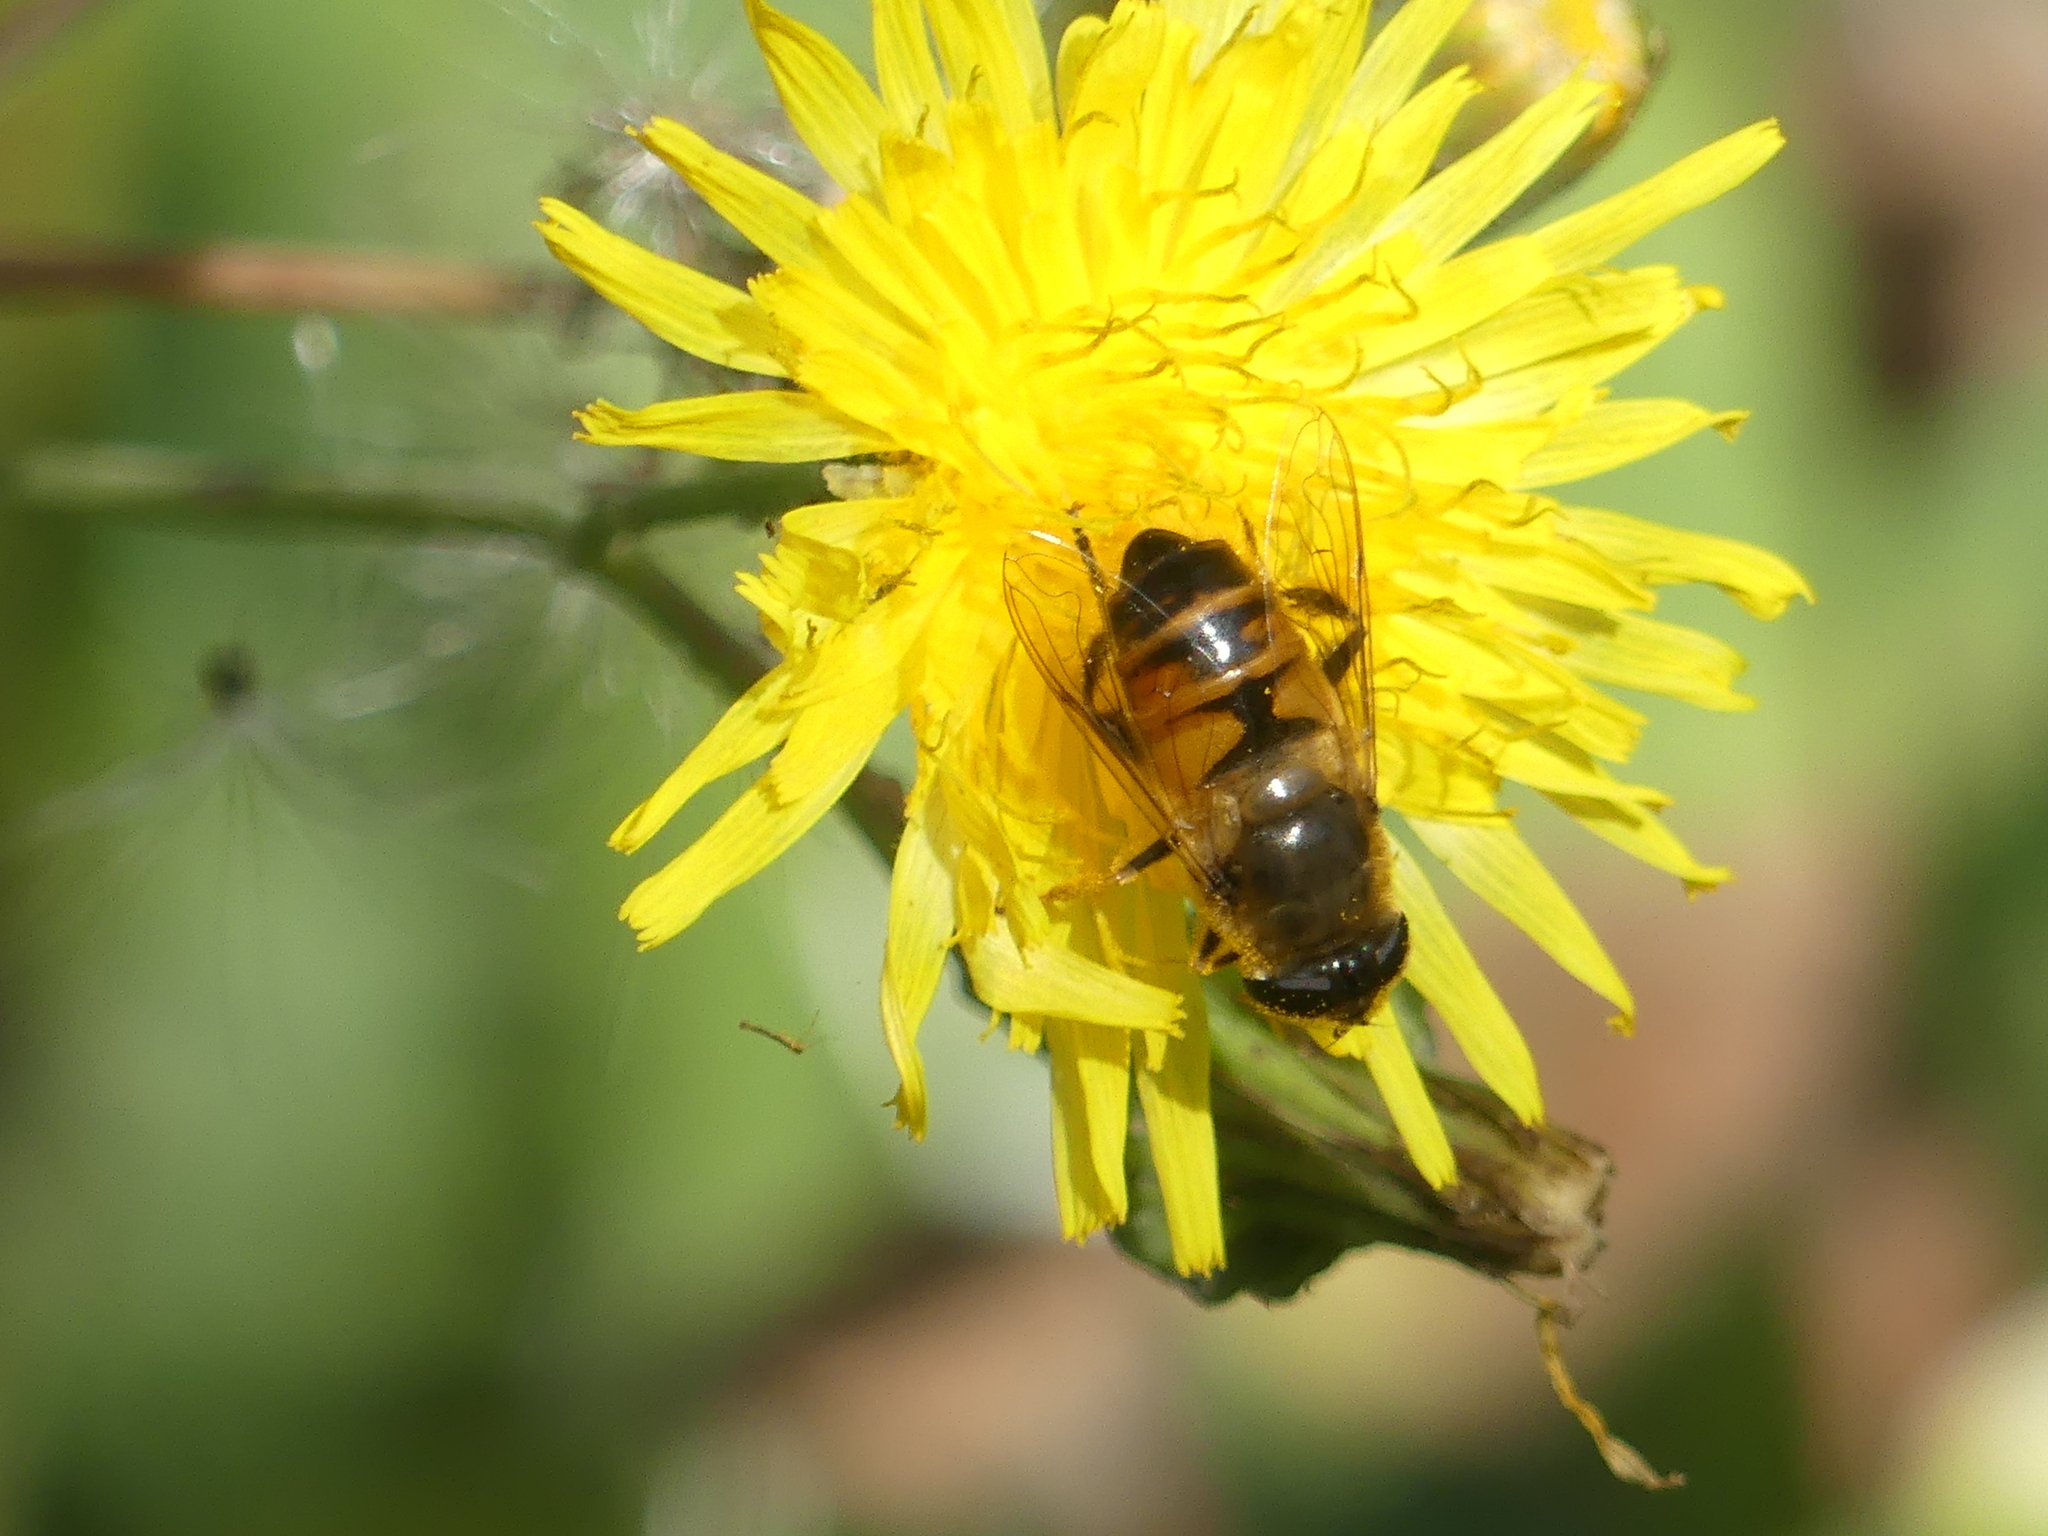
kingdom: Animalia
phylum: Arthropoda
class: Insecta
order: Diptera
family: Syrphidae
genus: Eristalis
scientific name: Eristalis tenax
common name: Drone fly
